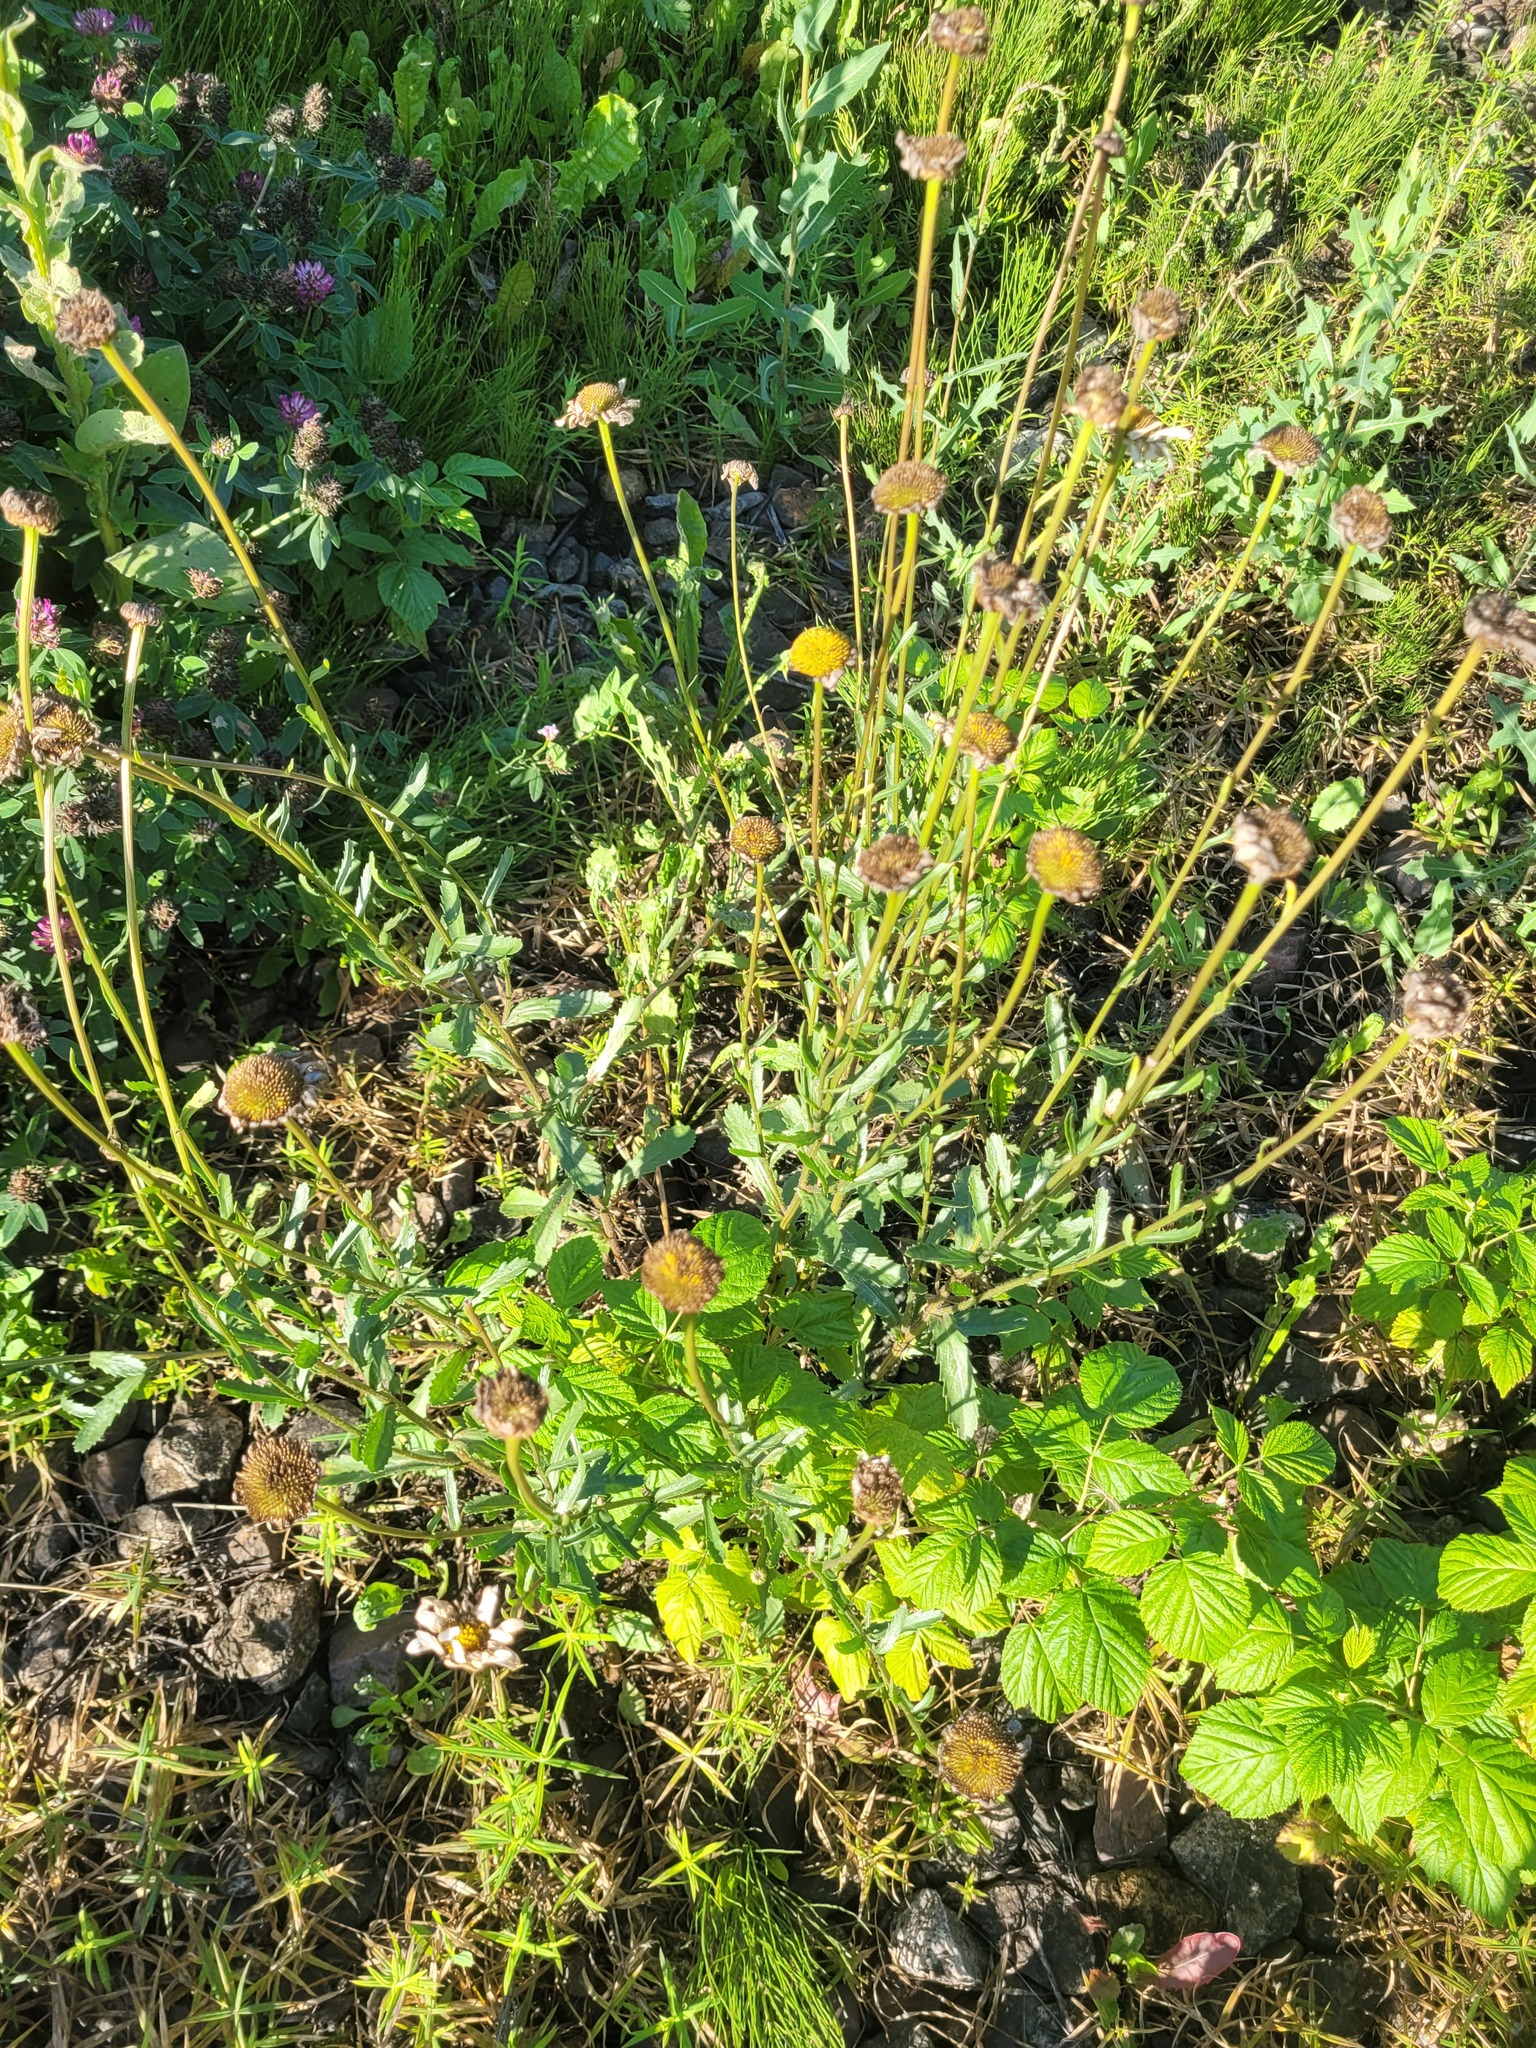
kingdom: Plantae
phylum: Tracheophyta
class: Magnoliopsida
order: Asterales
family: Asteraceae
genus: Leucanthemum
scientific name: Leucanthemum vulgare
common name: Oxeye daisy
